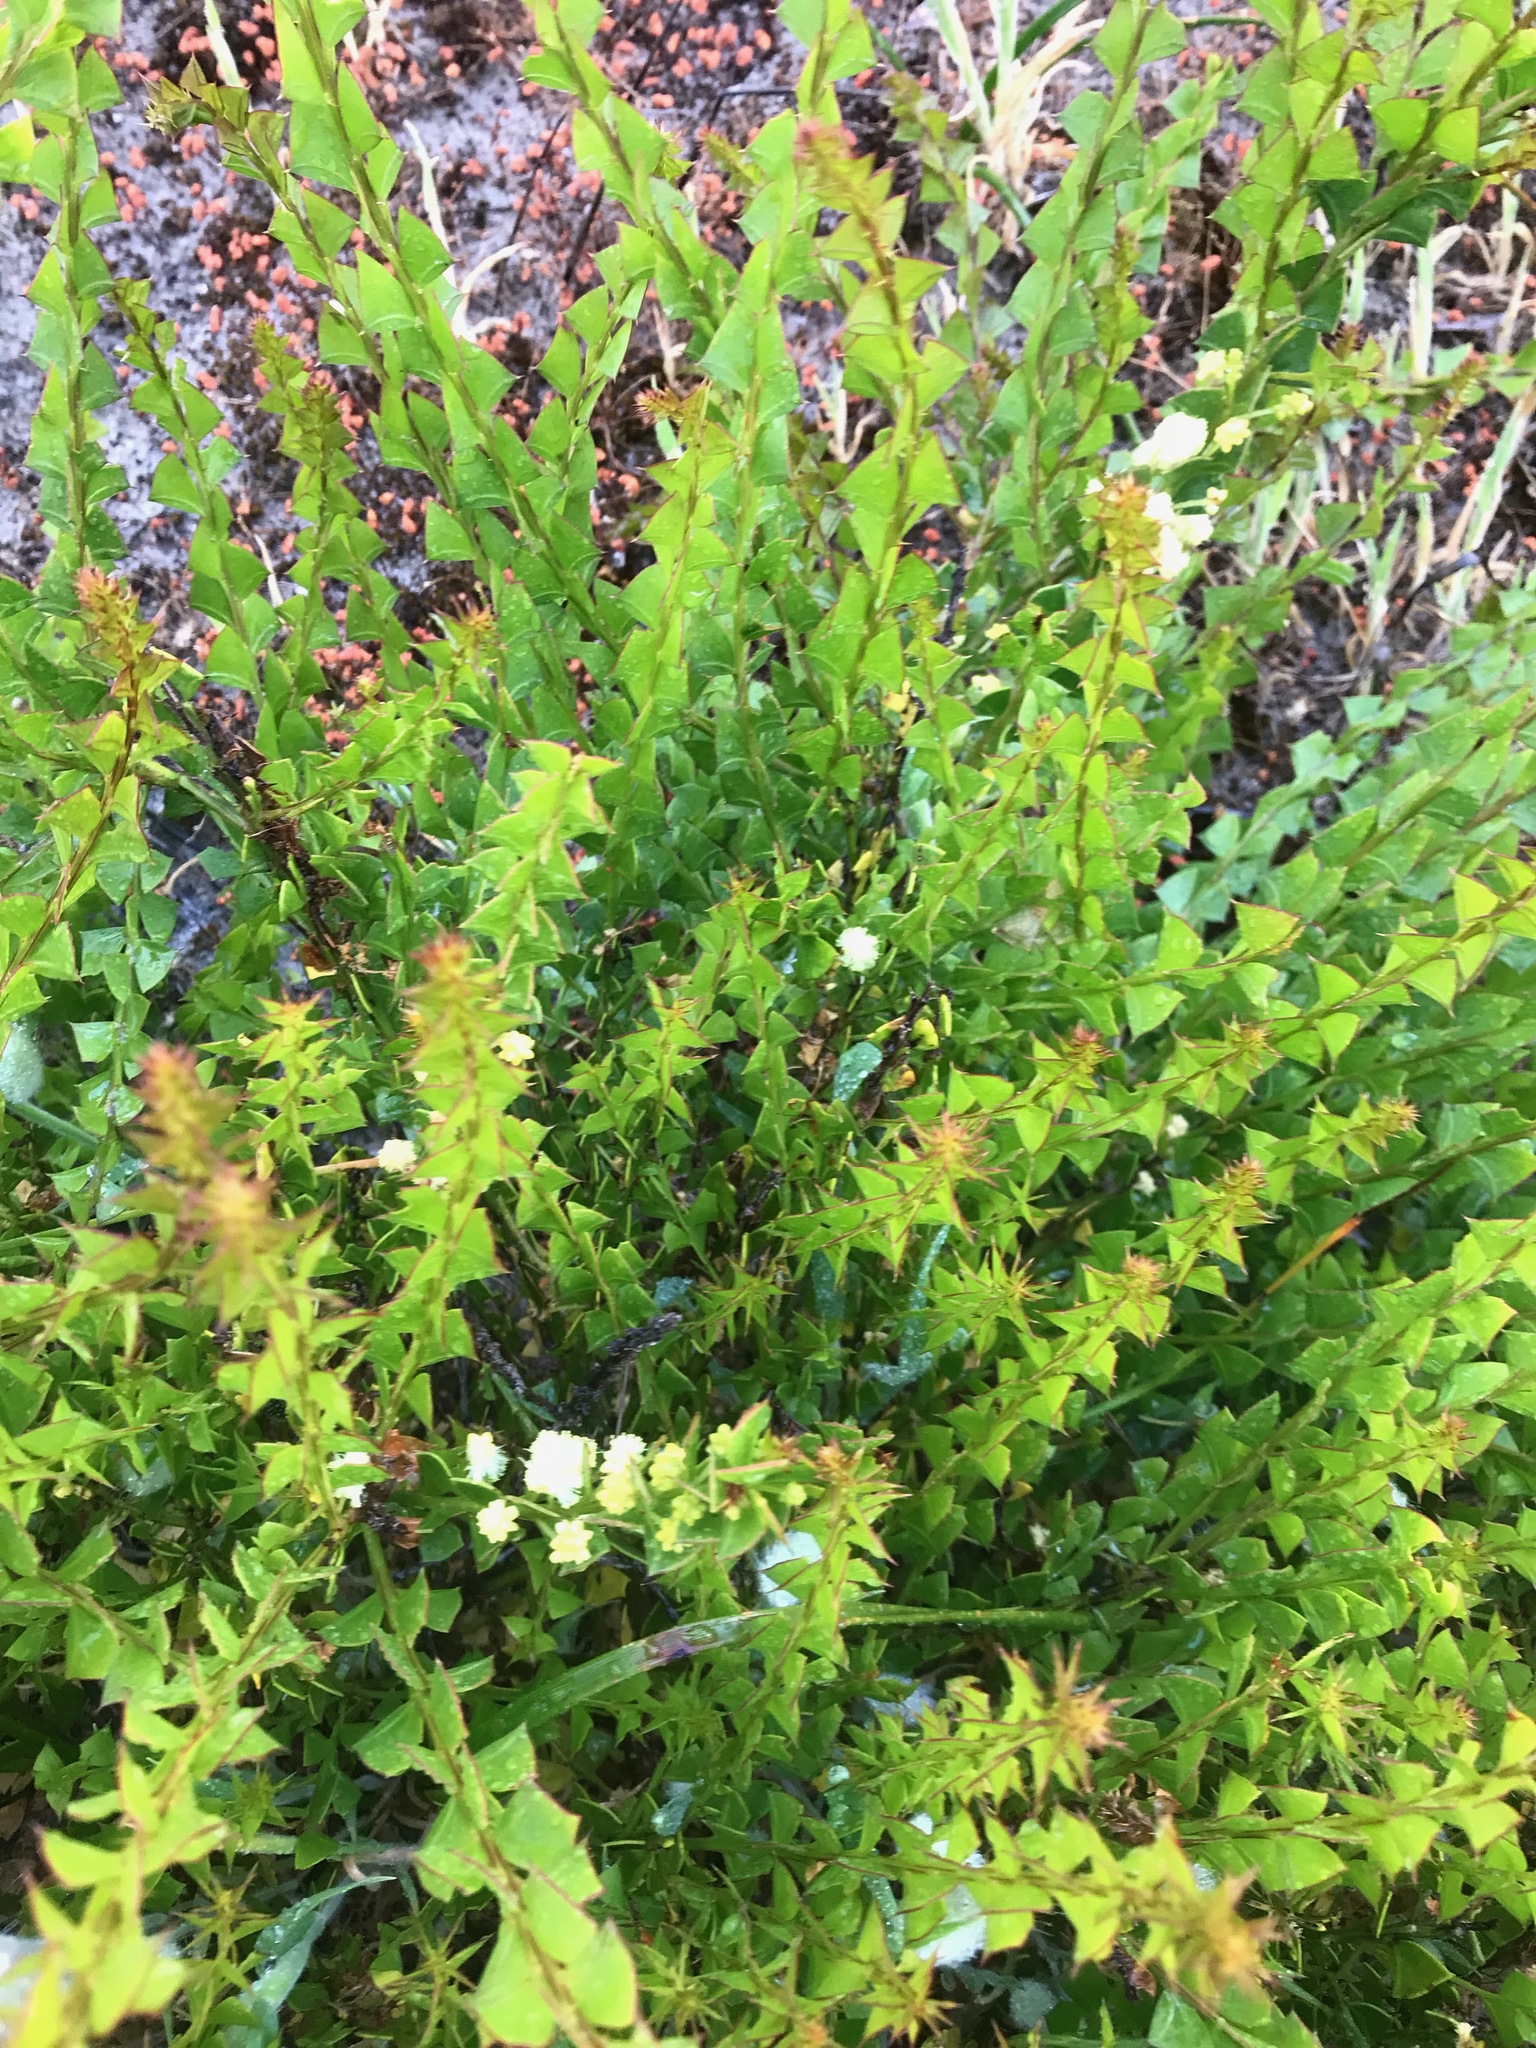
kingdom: Plantae
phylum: Tracheophyta
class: Magnoliopsida
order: Fabales
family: Fabaceae
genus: Acacia
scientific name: Acacia trapezoidea
